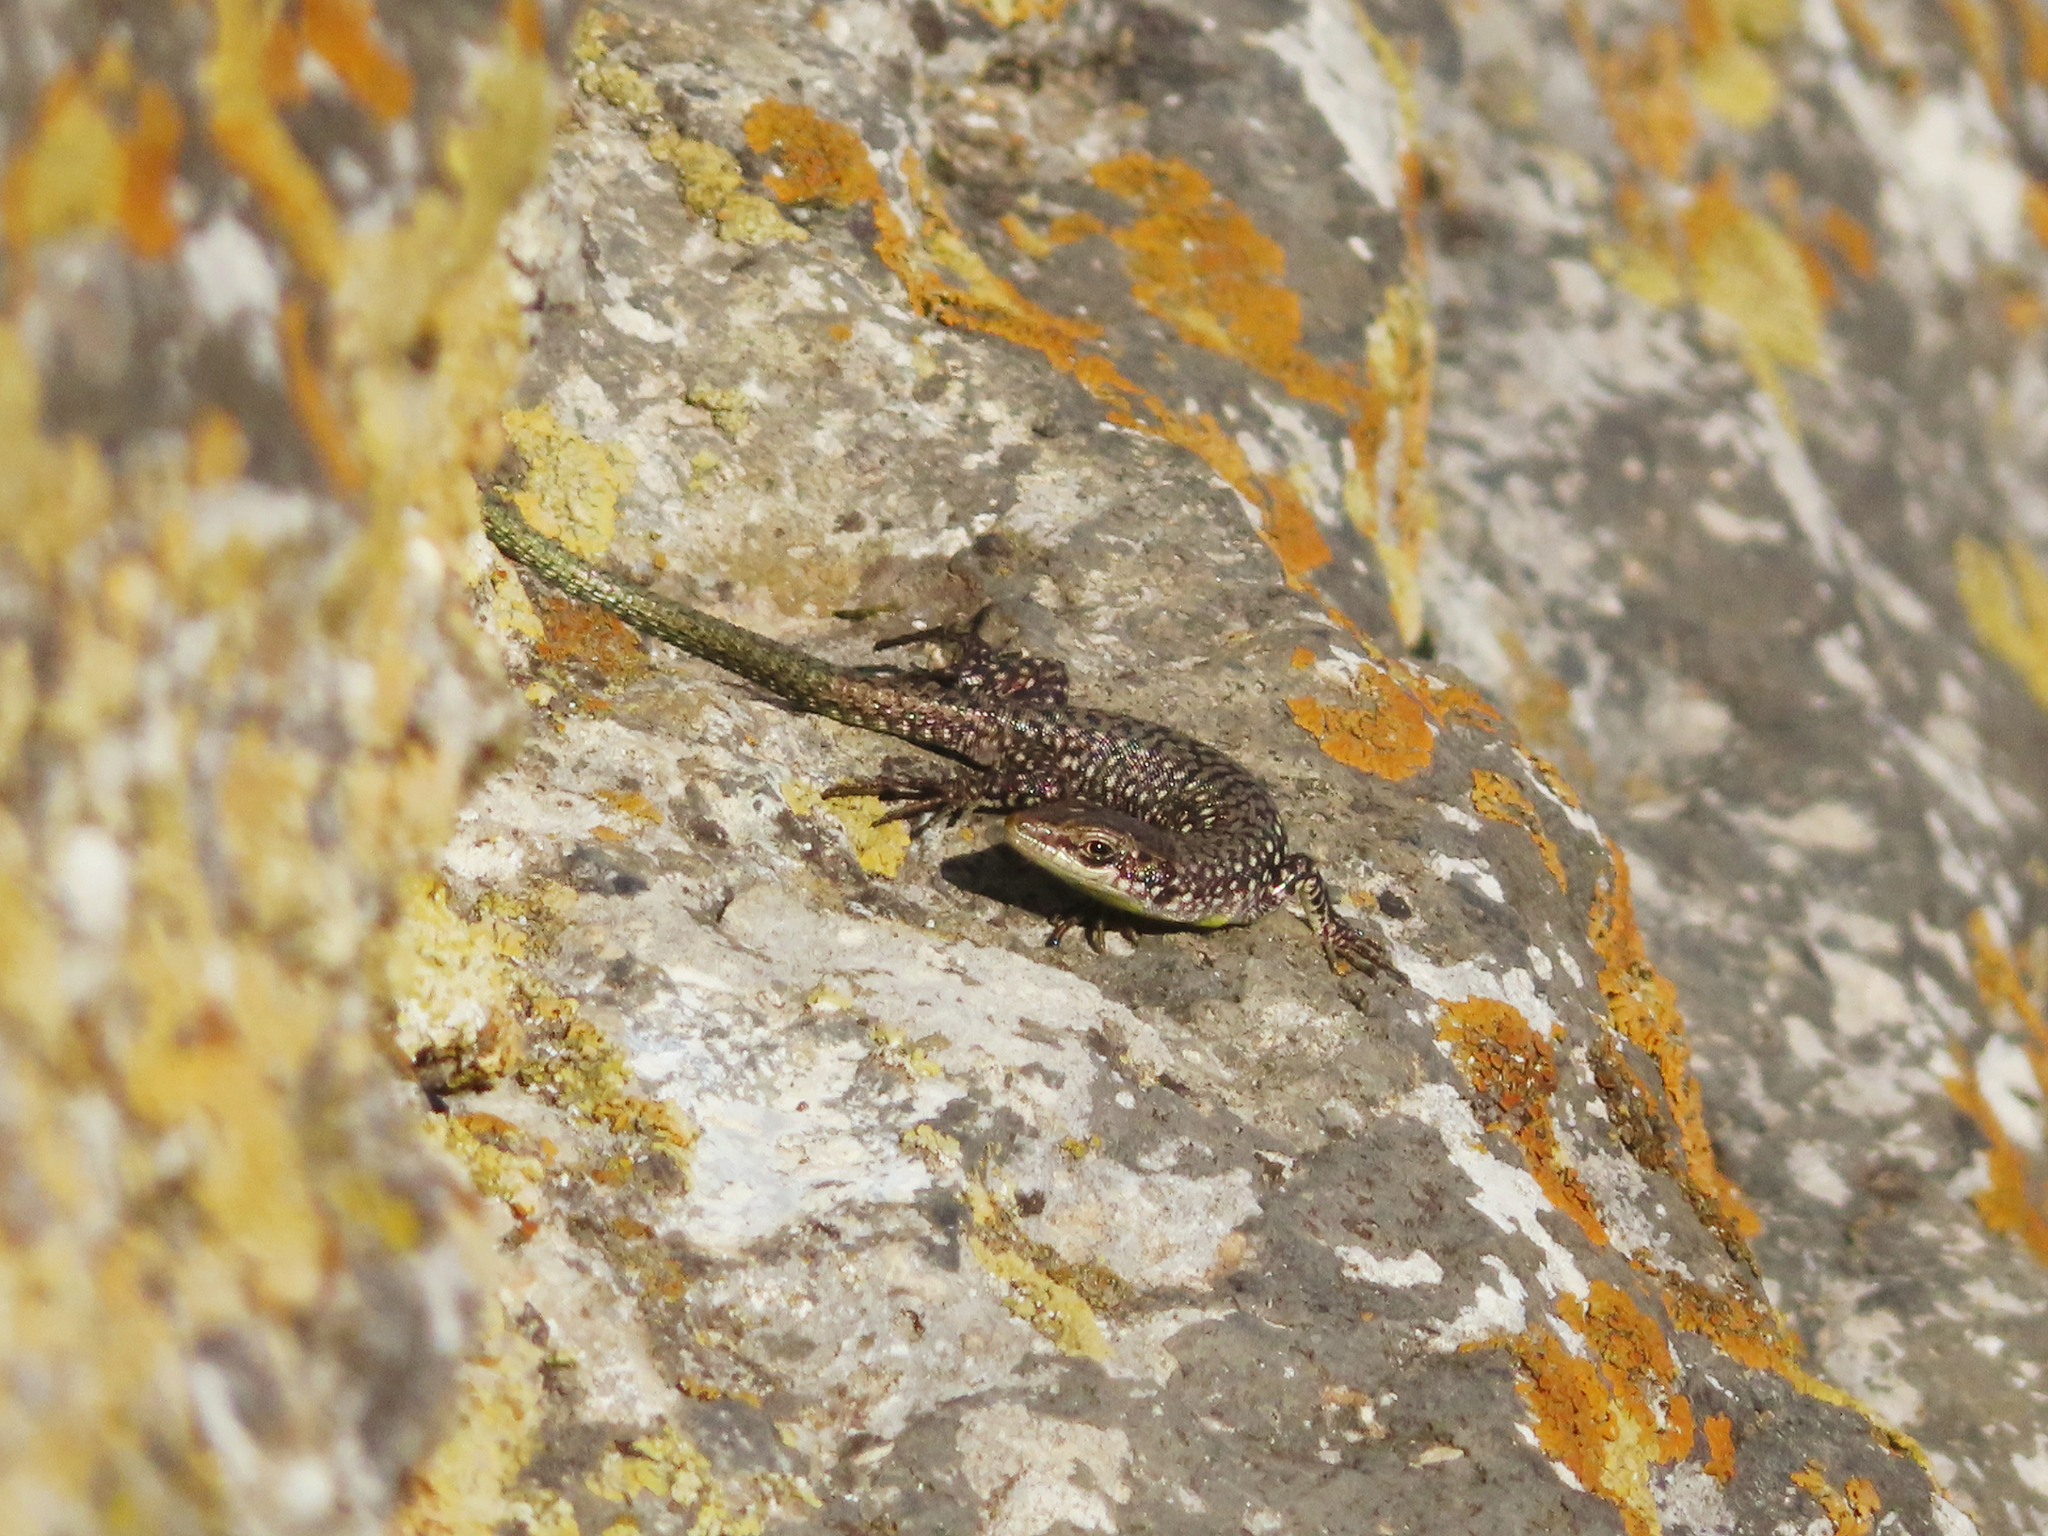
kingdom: Animalia
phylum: Chordata
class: Squamata
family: Lacertidae
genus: Darevskia
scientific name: Darevskia
